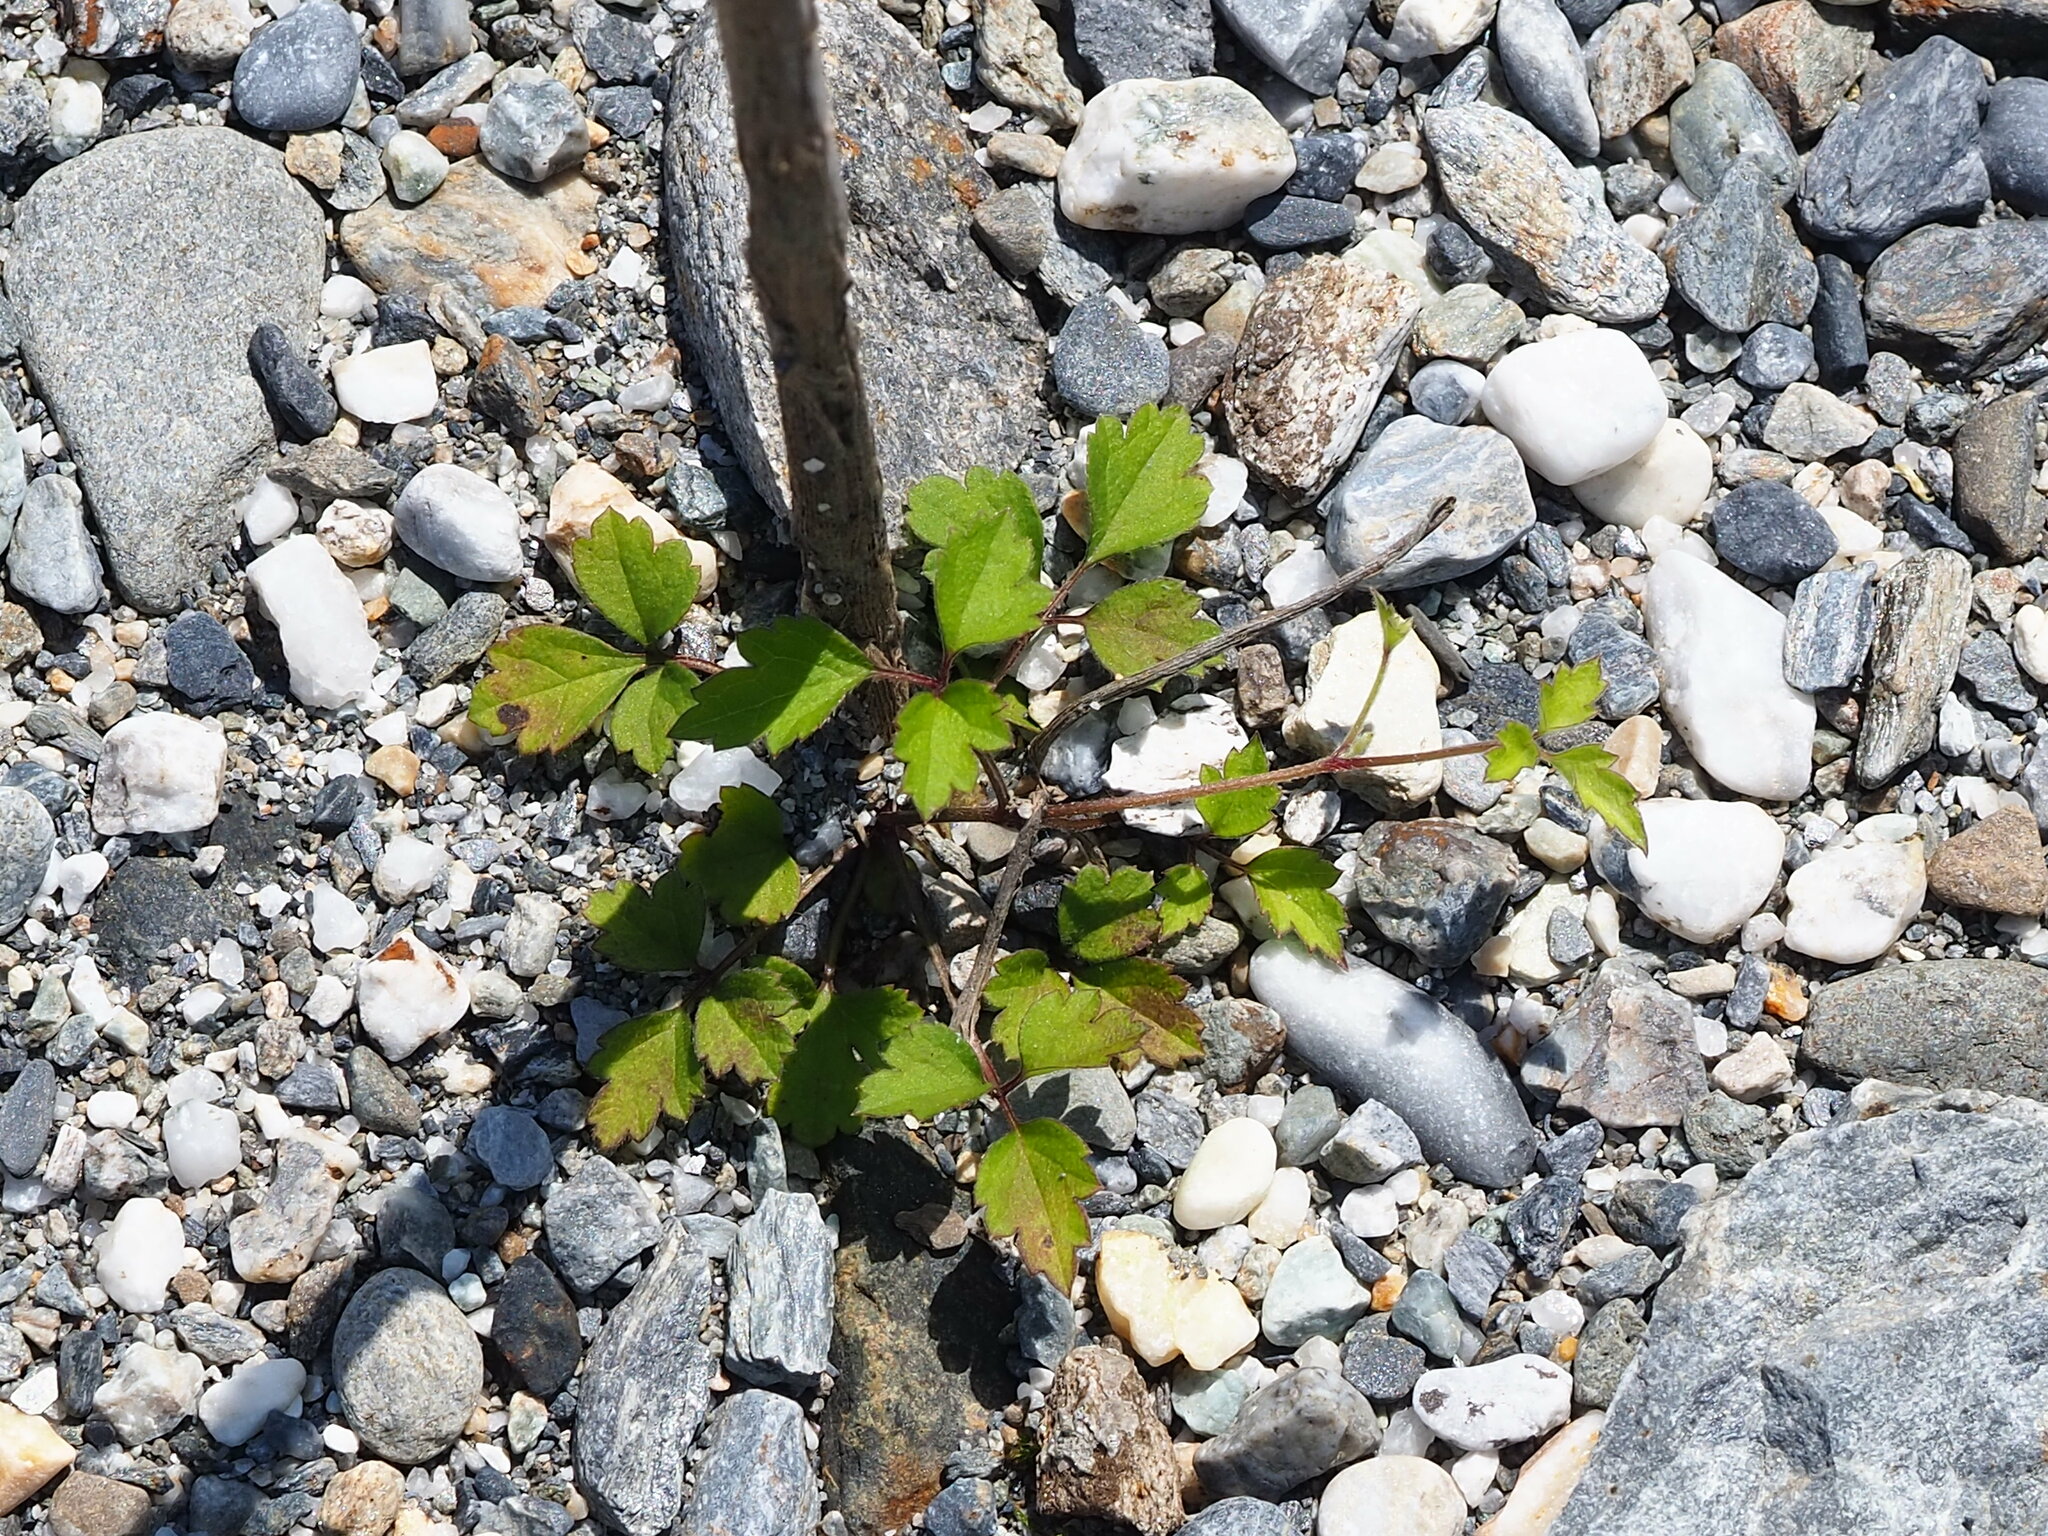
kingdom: Plantae
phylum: Tracheophyta
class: Magnoliopsida
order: Ranunculales
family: Ranunculaceae
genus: Clematis
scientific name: Clematis grata
